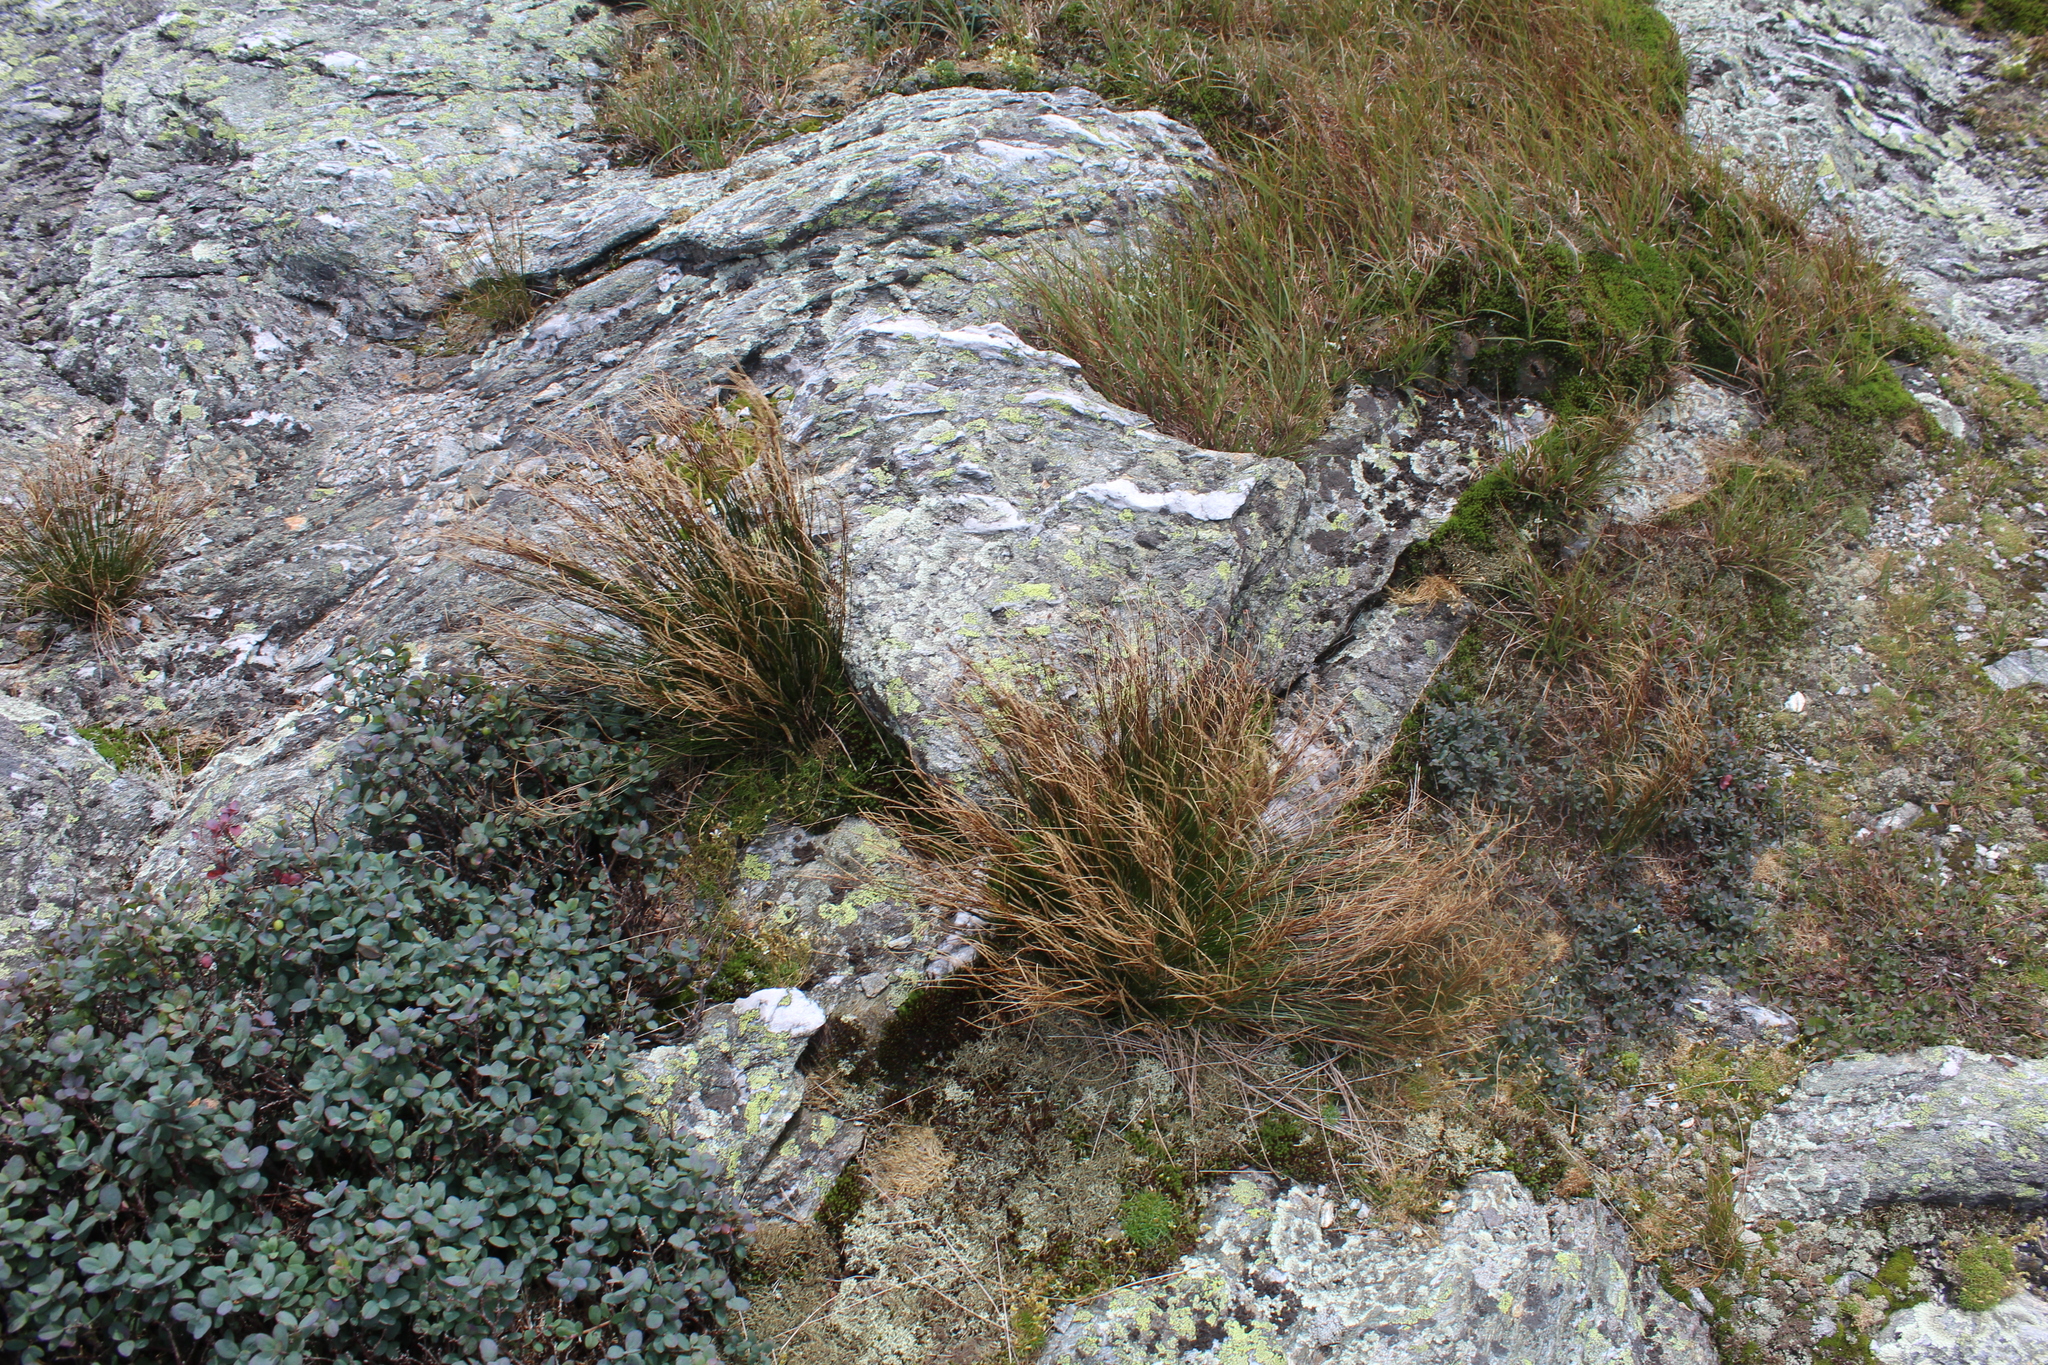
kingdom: Plantae
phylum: Tracheophyta
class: Liliopsida
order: Poales
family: Juncaceae
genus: Oreojuncus
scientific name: Oreojuncus trifidus
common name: Highland rush
